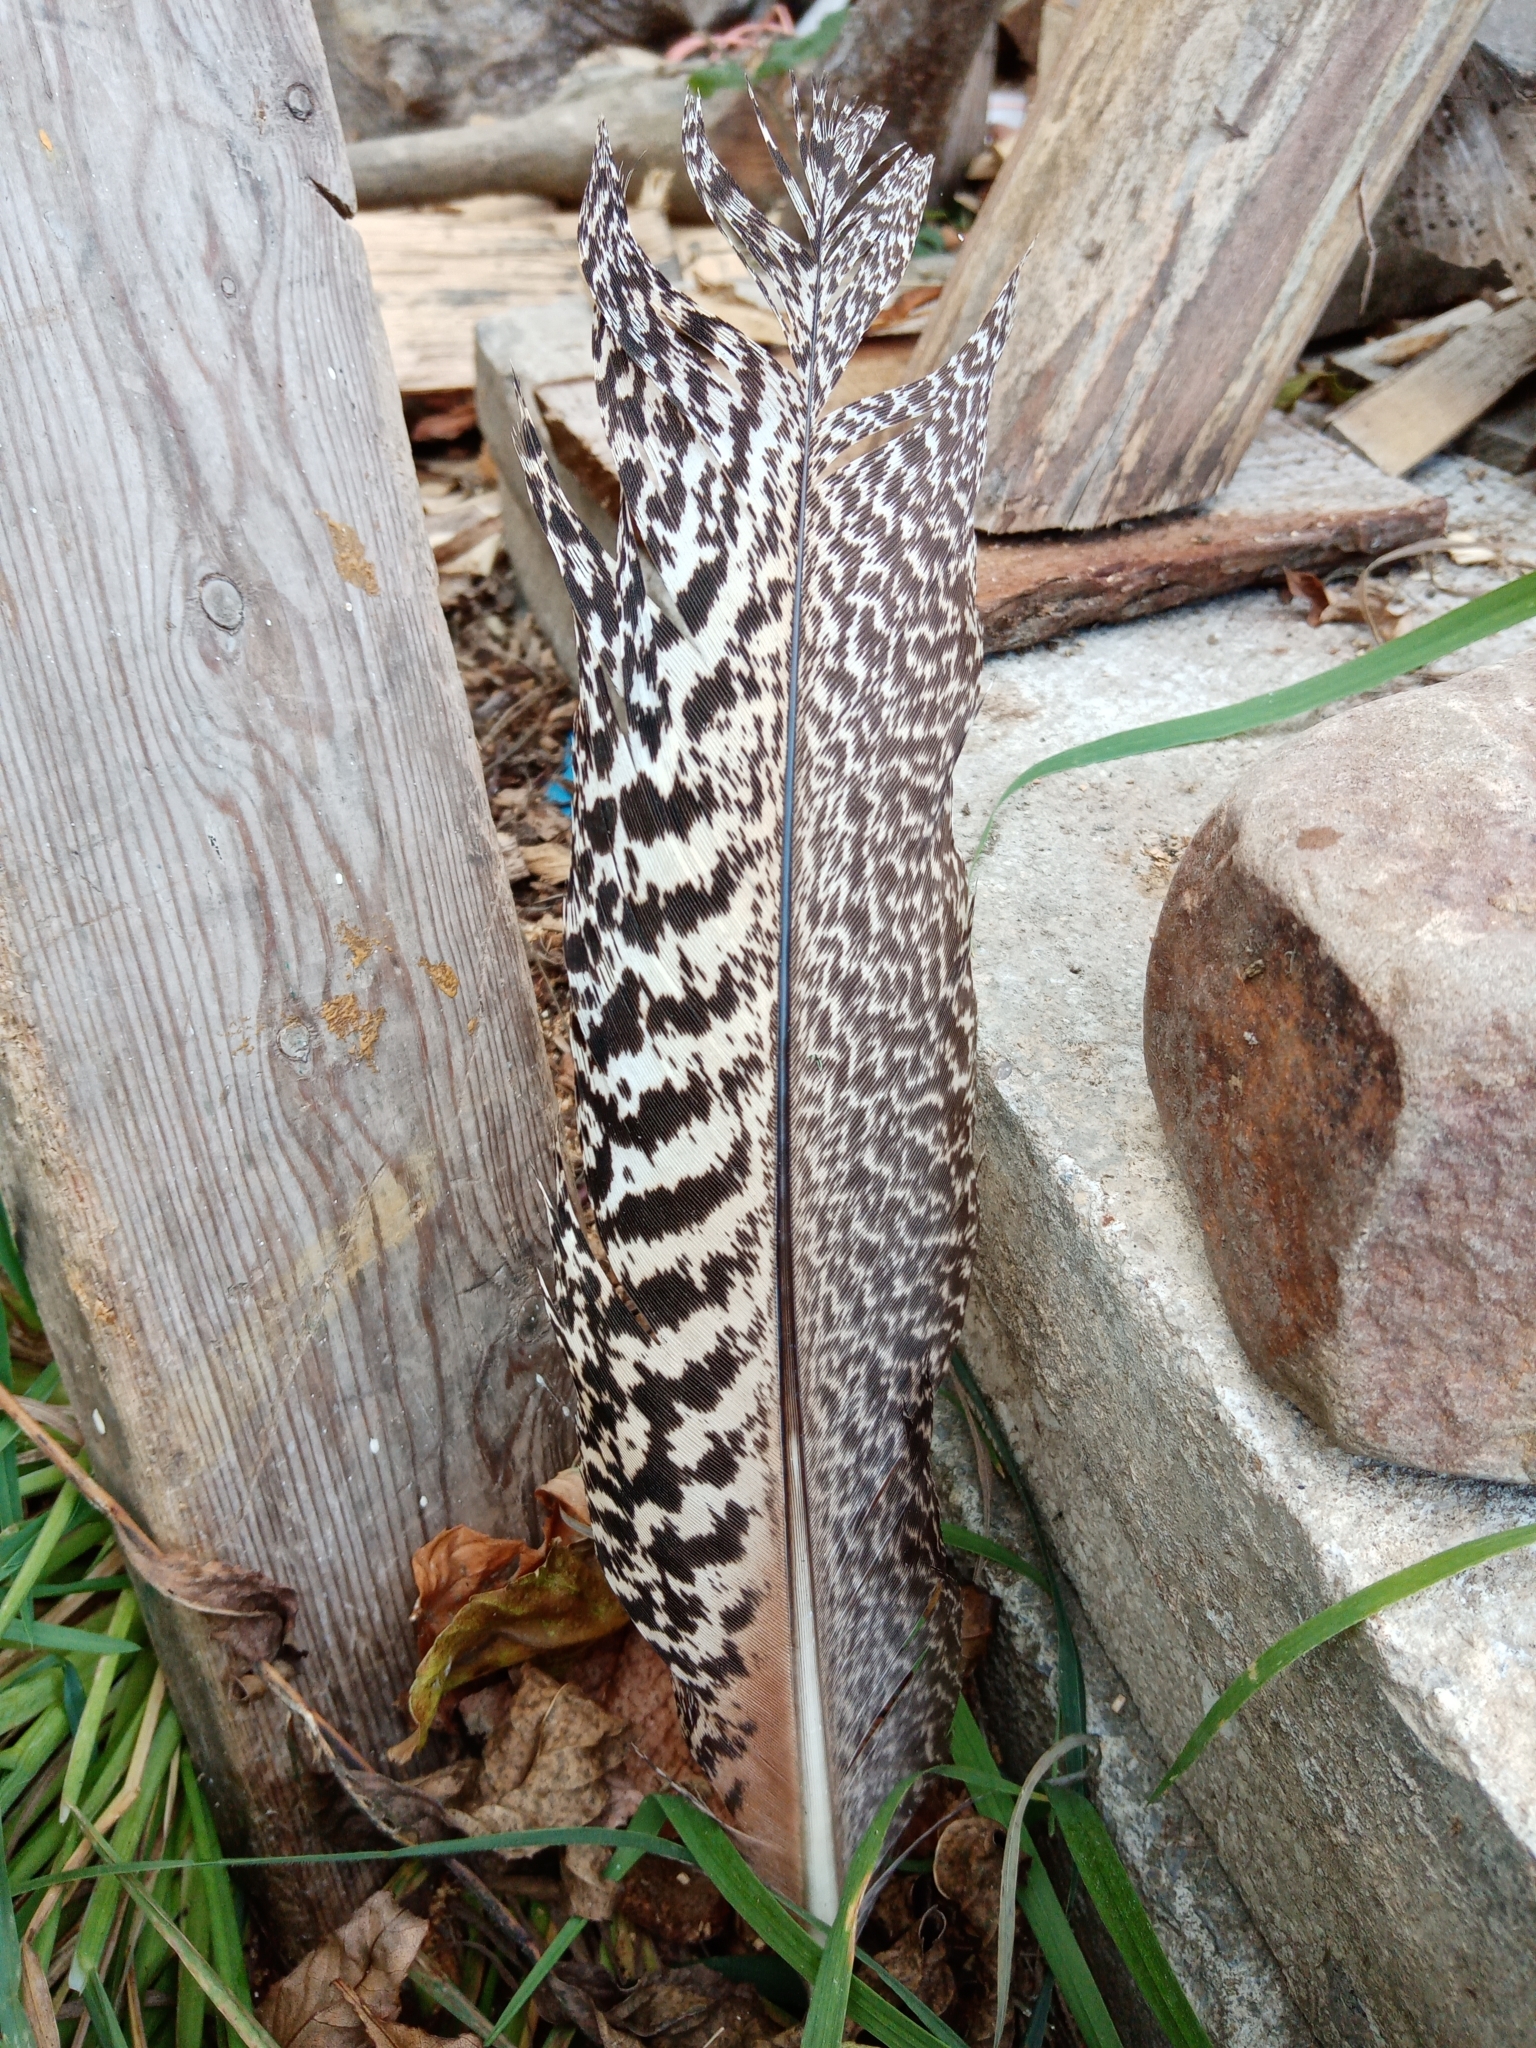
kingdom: Animalia
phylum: Chordata
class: Aves
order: Galliformes
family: Phasianidae
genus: Pavo
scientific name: Pavo cristatus
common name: Indian peafowl
